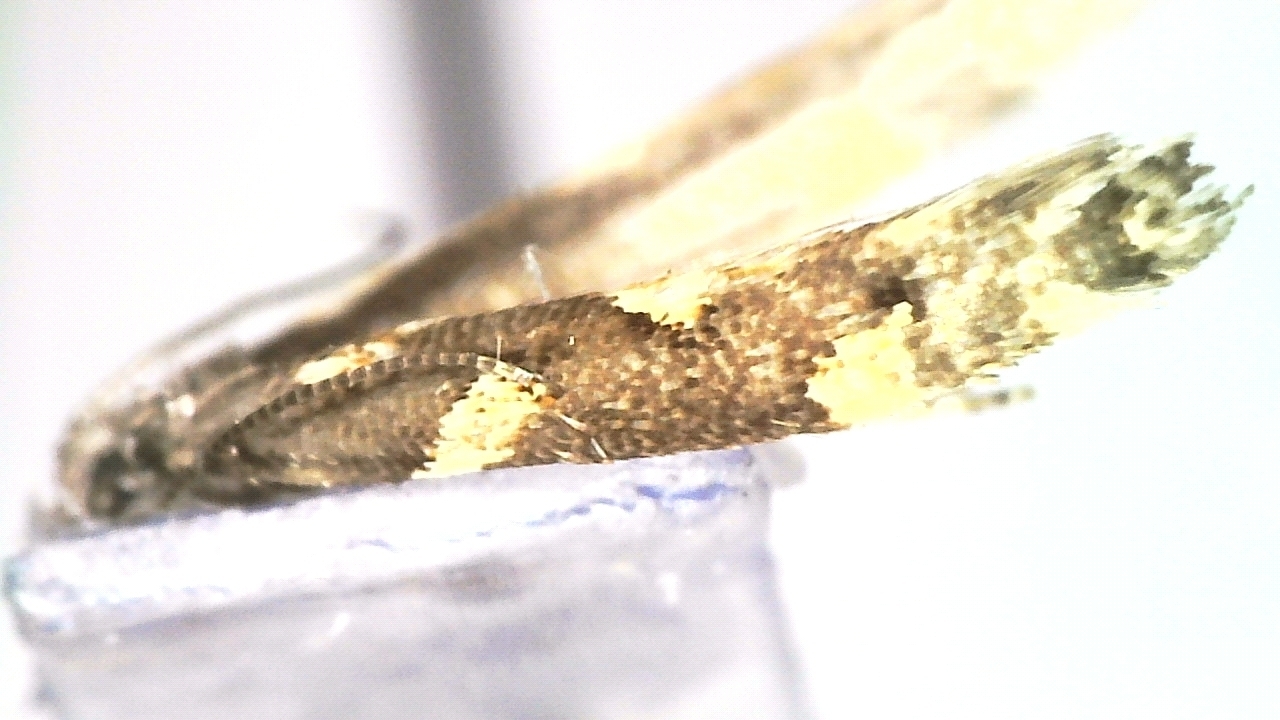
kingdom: Animalia
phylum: Arthropoda
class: Insecta
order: Lepidoptera
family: Gracillariidae
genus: Calybites
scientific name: Calybites phasianipennella
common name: Little slender
